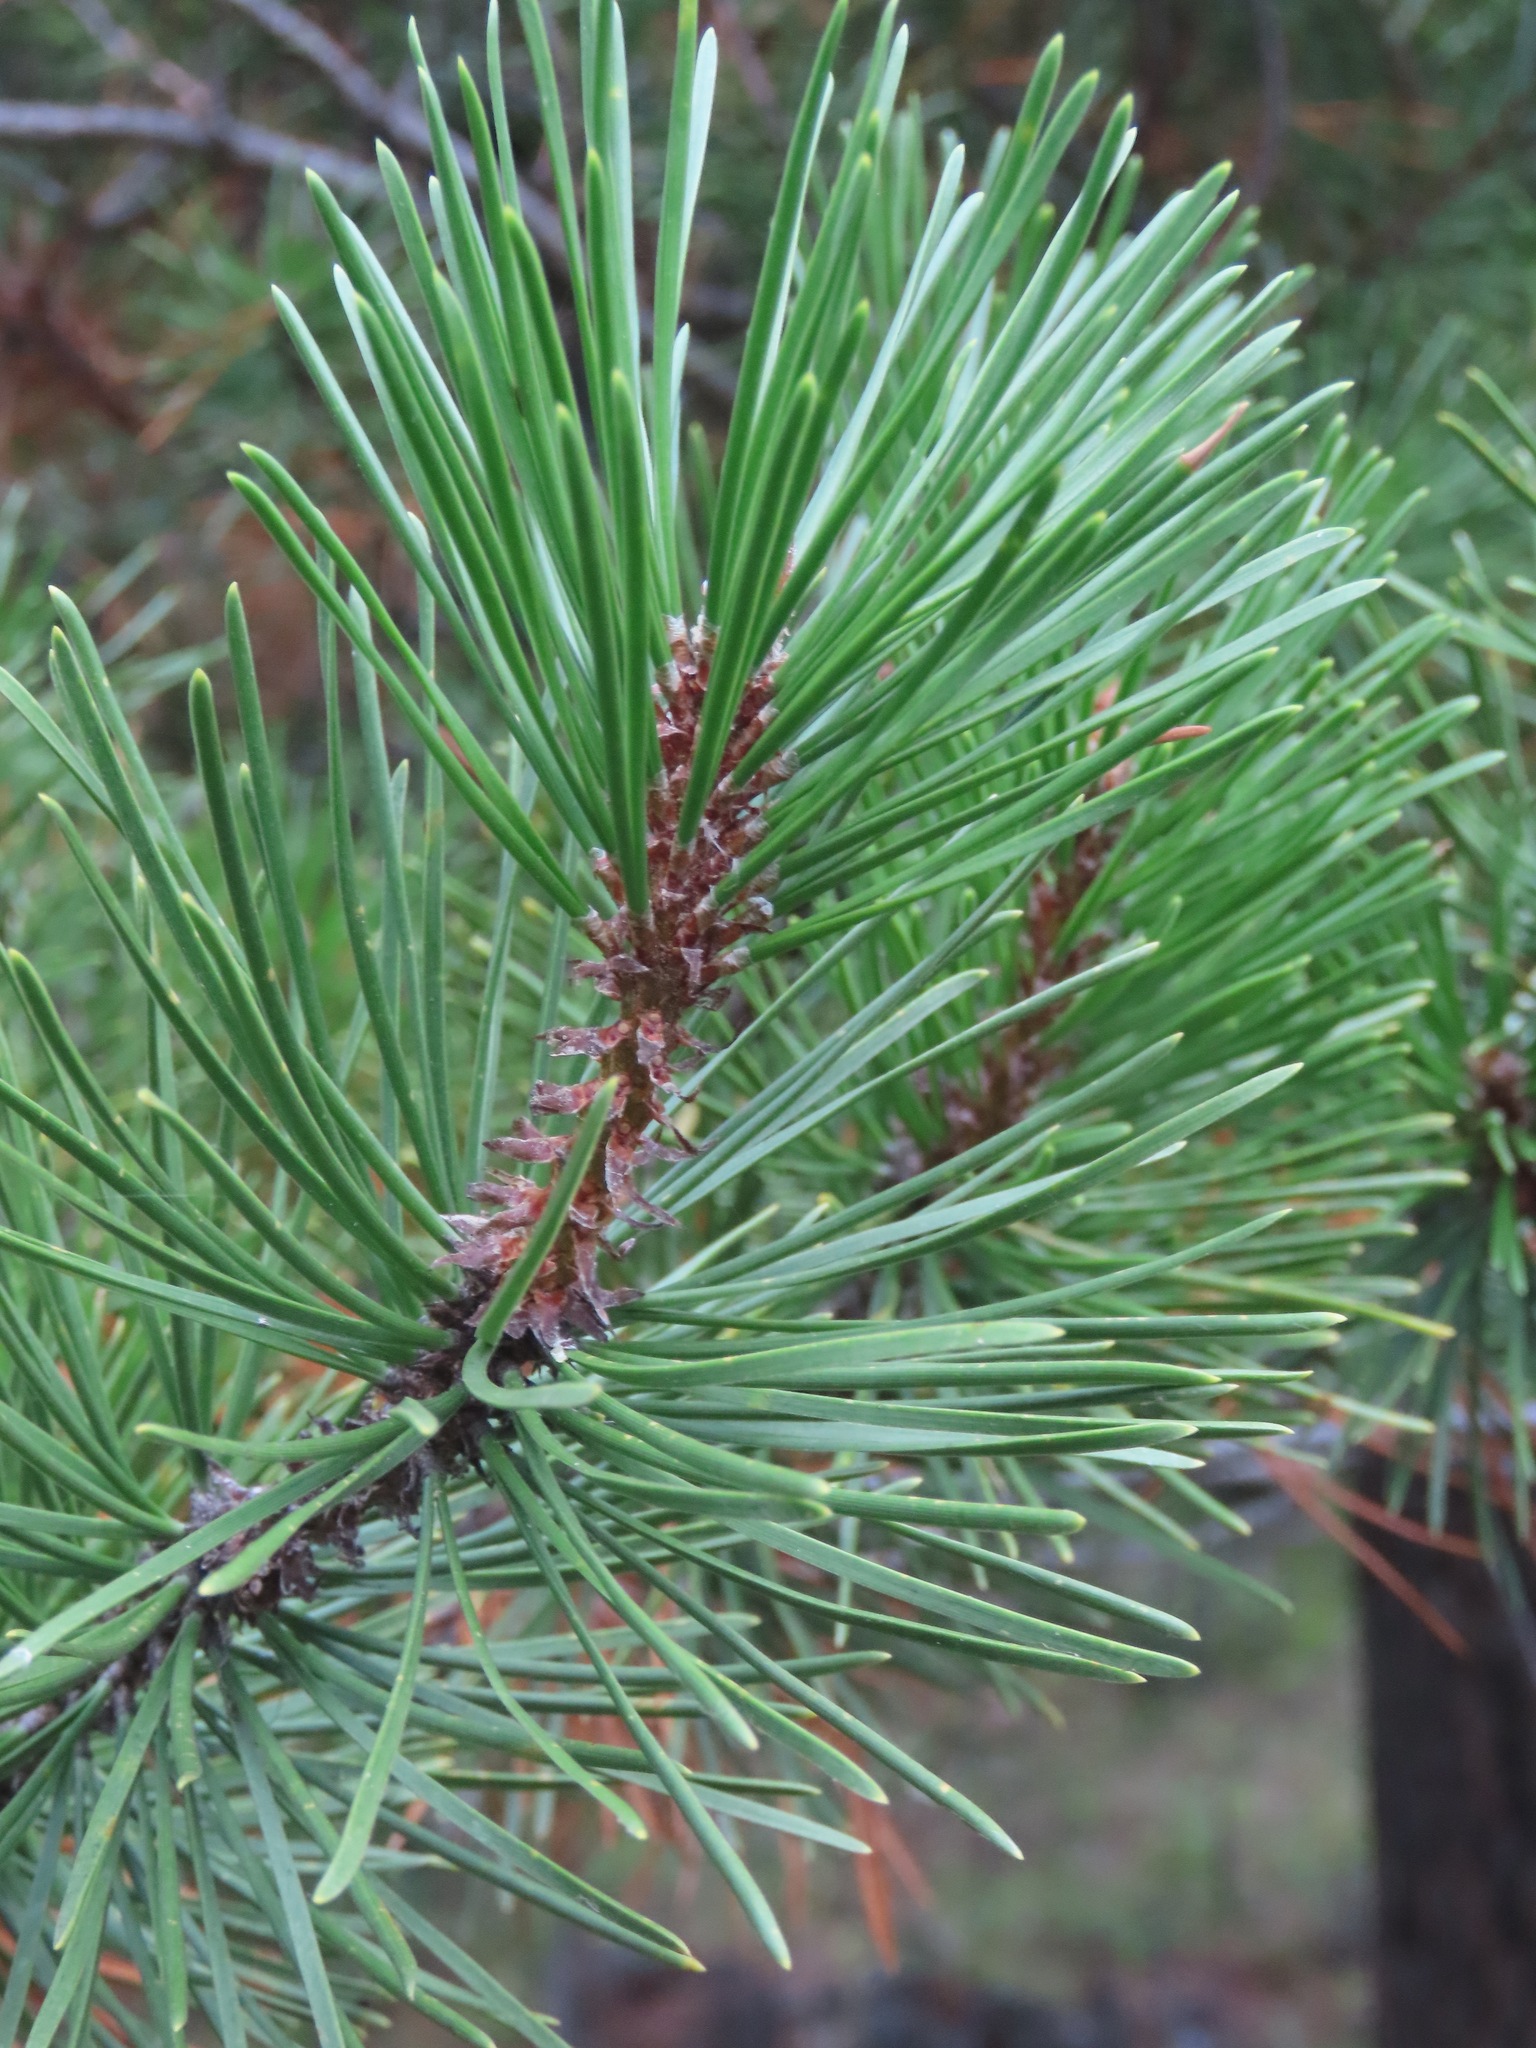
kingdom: Plantae
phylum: Tracheophyta
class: Pinopsida
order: Pinales
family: Pinaceae
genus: Pinus
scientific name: Pinus contorta
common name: Lodgepole pine
